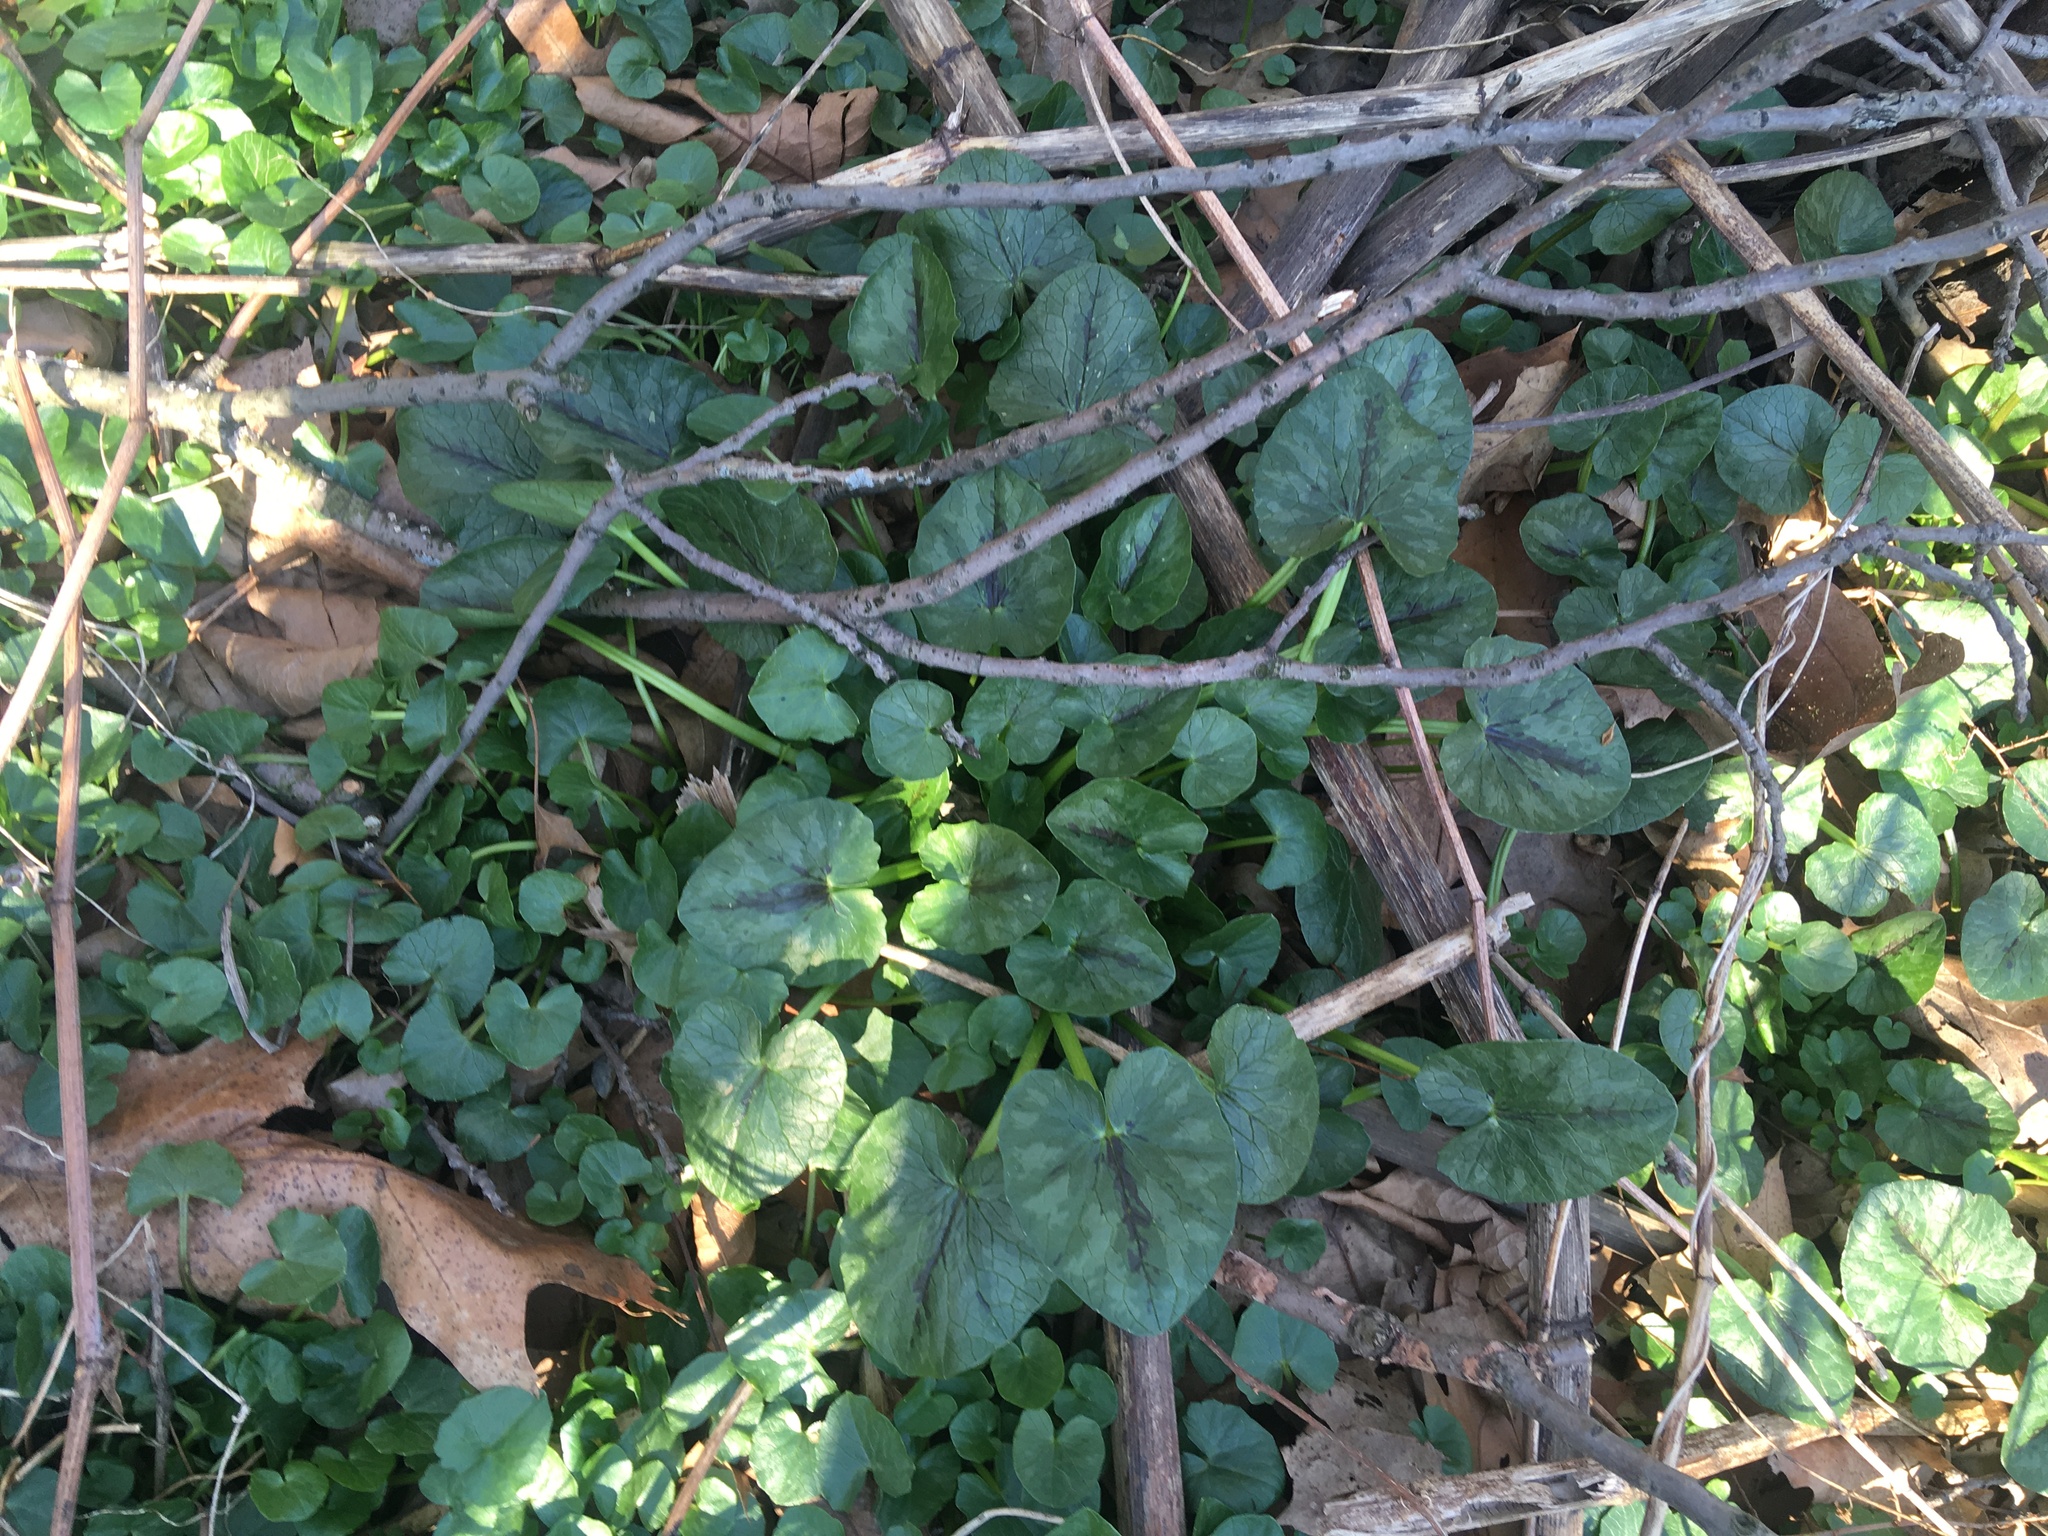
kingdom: Plantae
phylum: Tracheophyta
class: Magnoliopsida
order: Ranunculales
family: Ranunculaceae
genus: Ficaria
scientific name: Ficaria verna
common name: Lesser celandine
